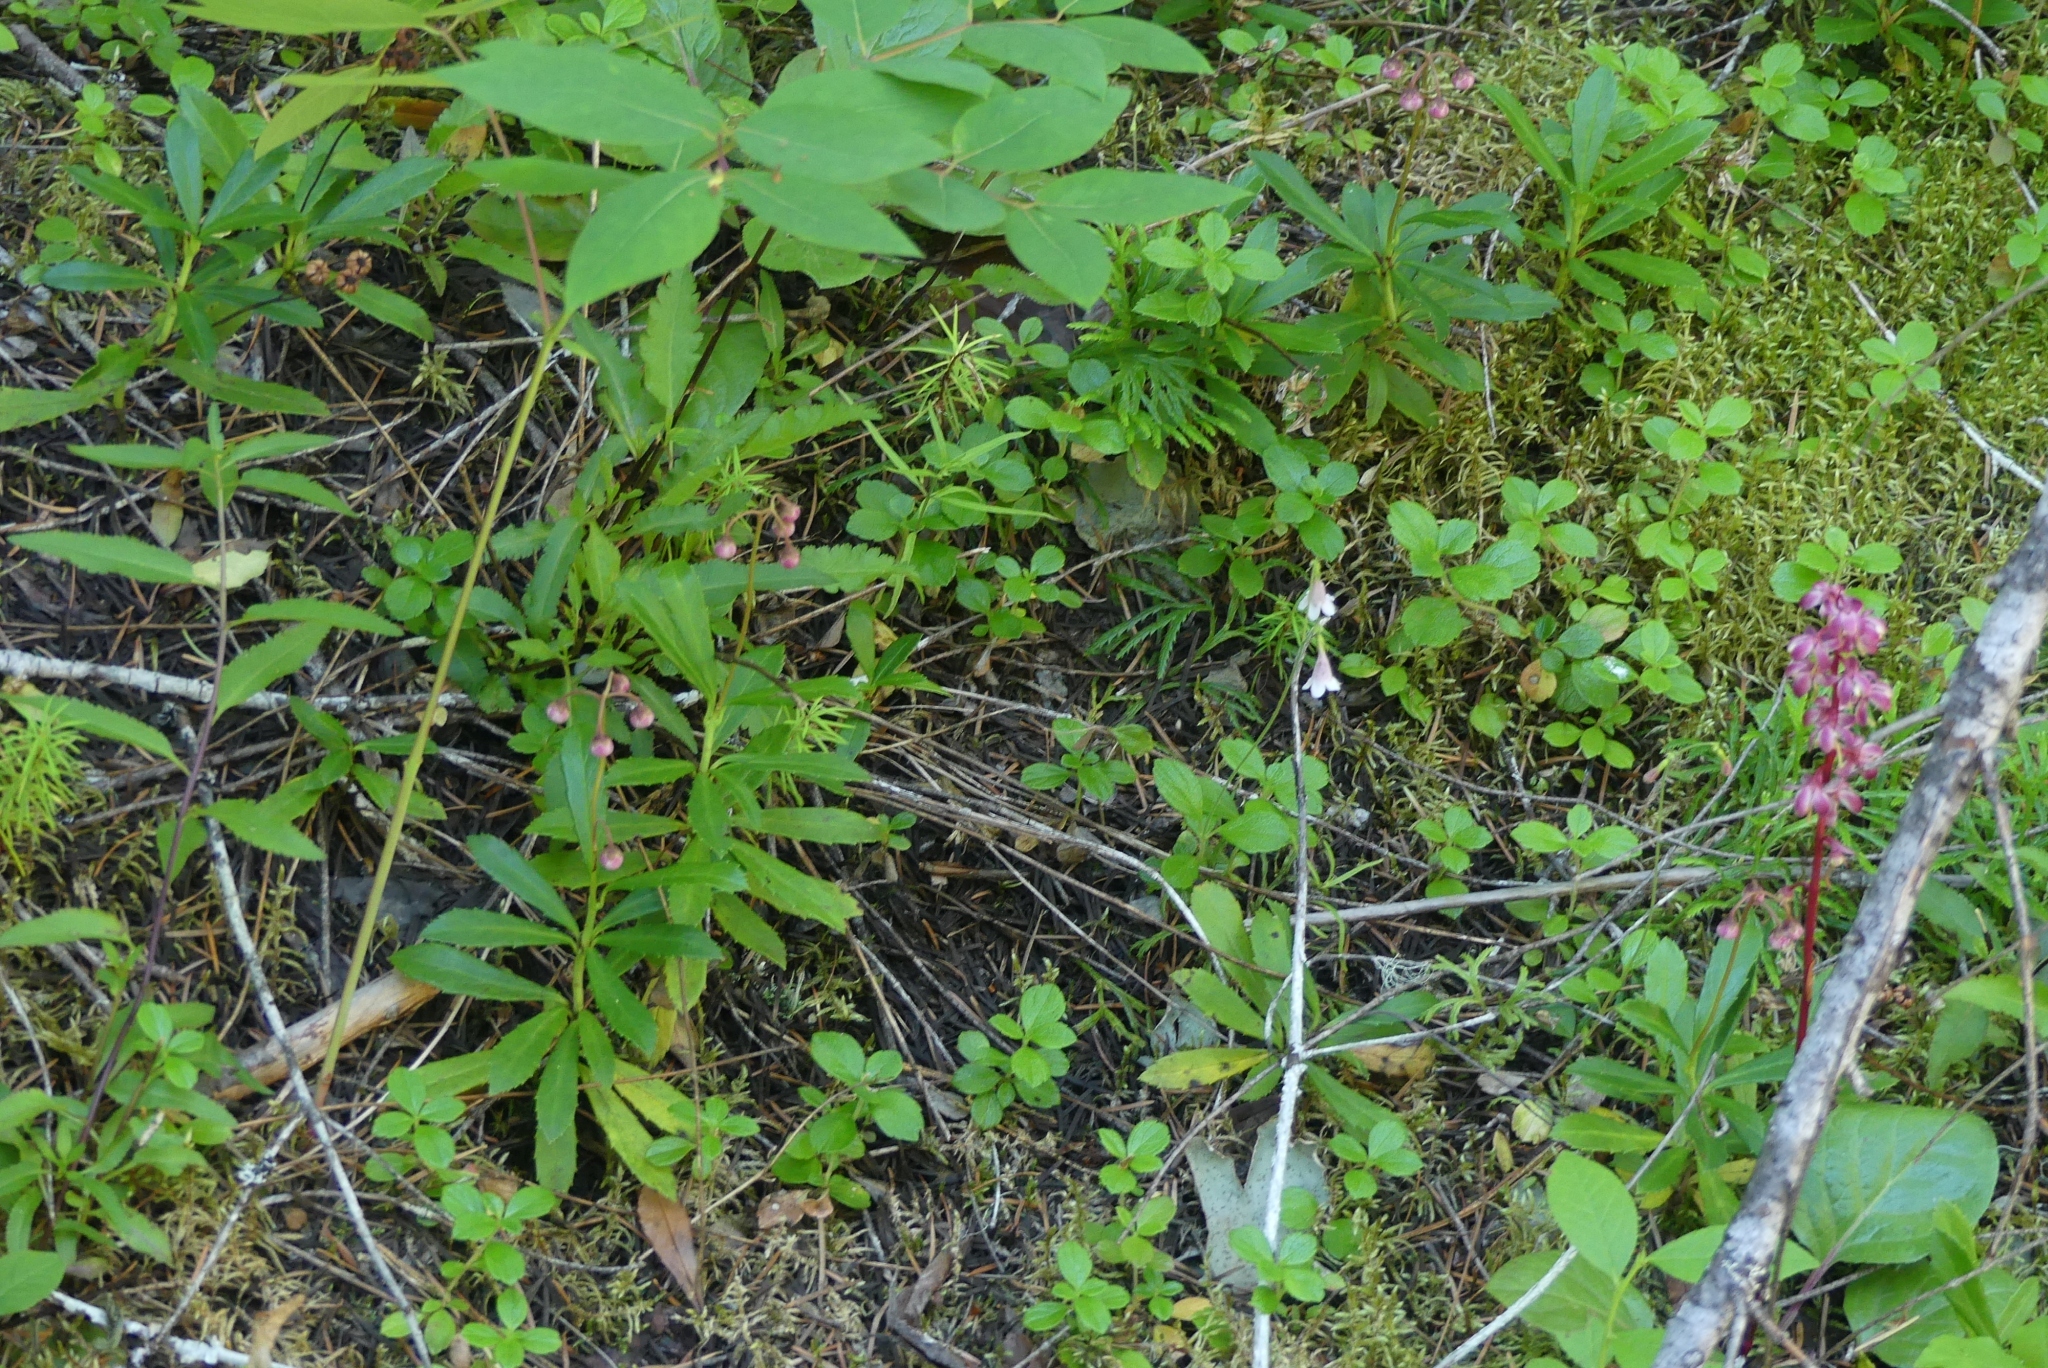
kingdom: Plantae
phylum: Tracheophyta
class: Magnoliopsida
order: Dipsacales
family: Caprifoliaceae
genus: Linnaea
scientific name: Linnaea borealis
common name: Twinflower
